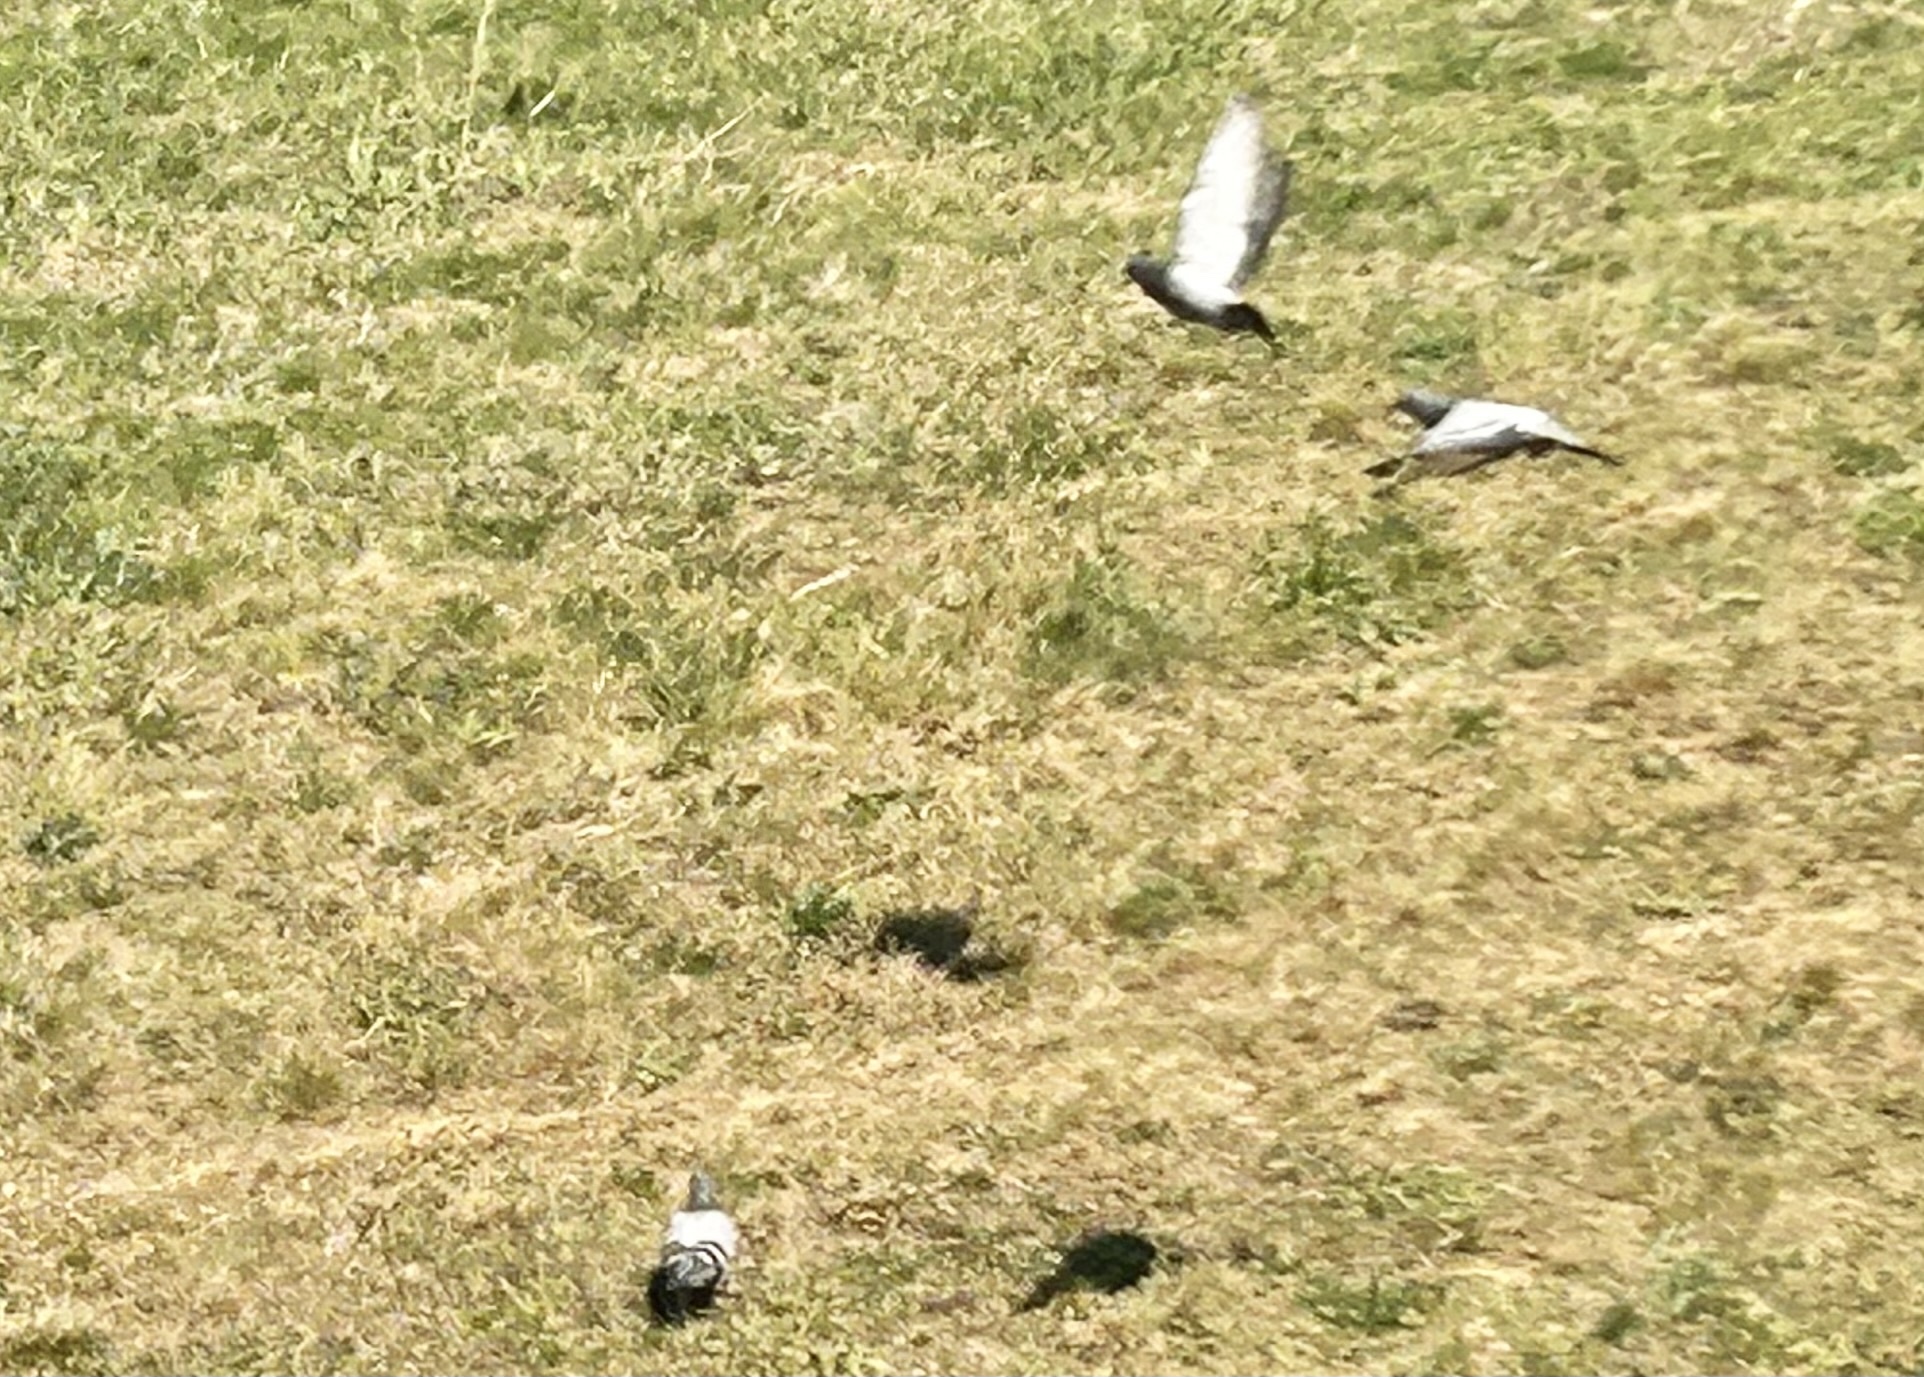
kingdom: Animalia
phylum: Chordata
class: Aves
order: Columbiformes
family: Columbidae
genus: Columba
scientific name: Columba livia
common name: Rock pigeon
